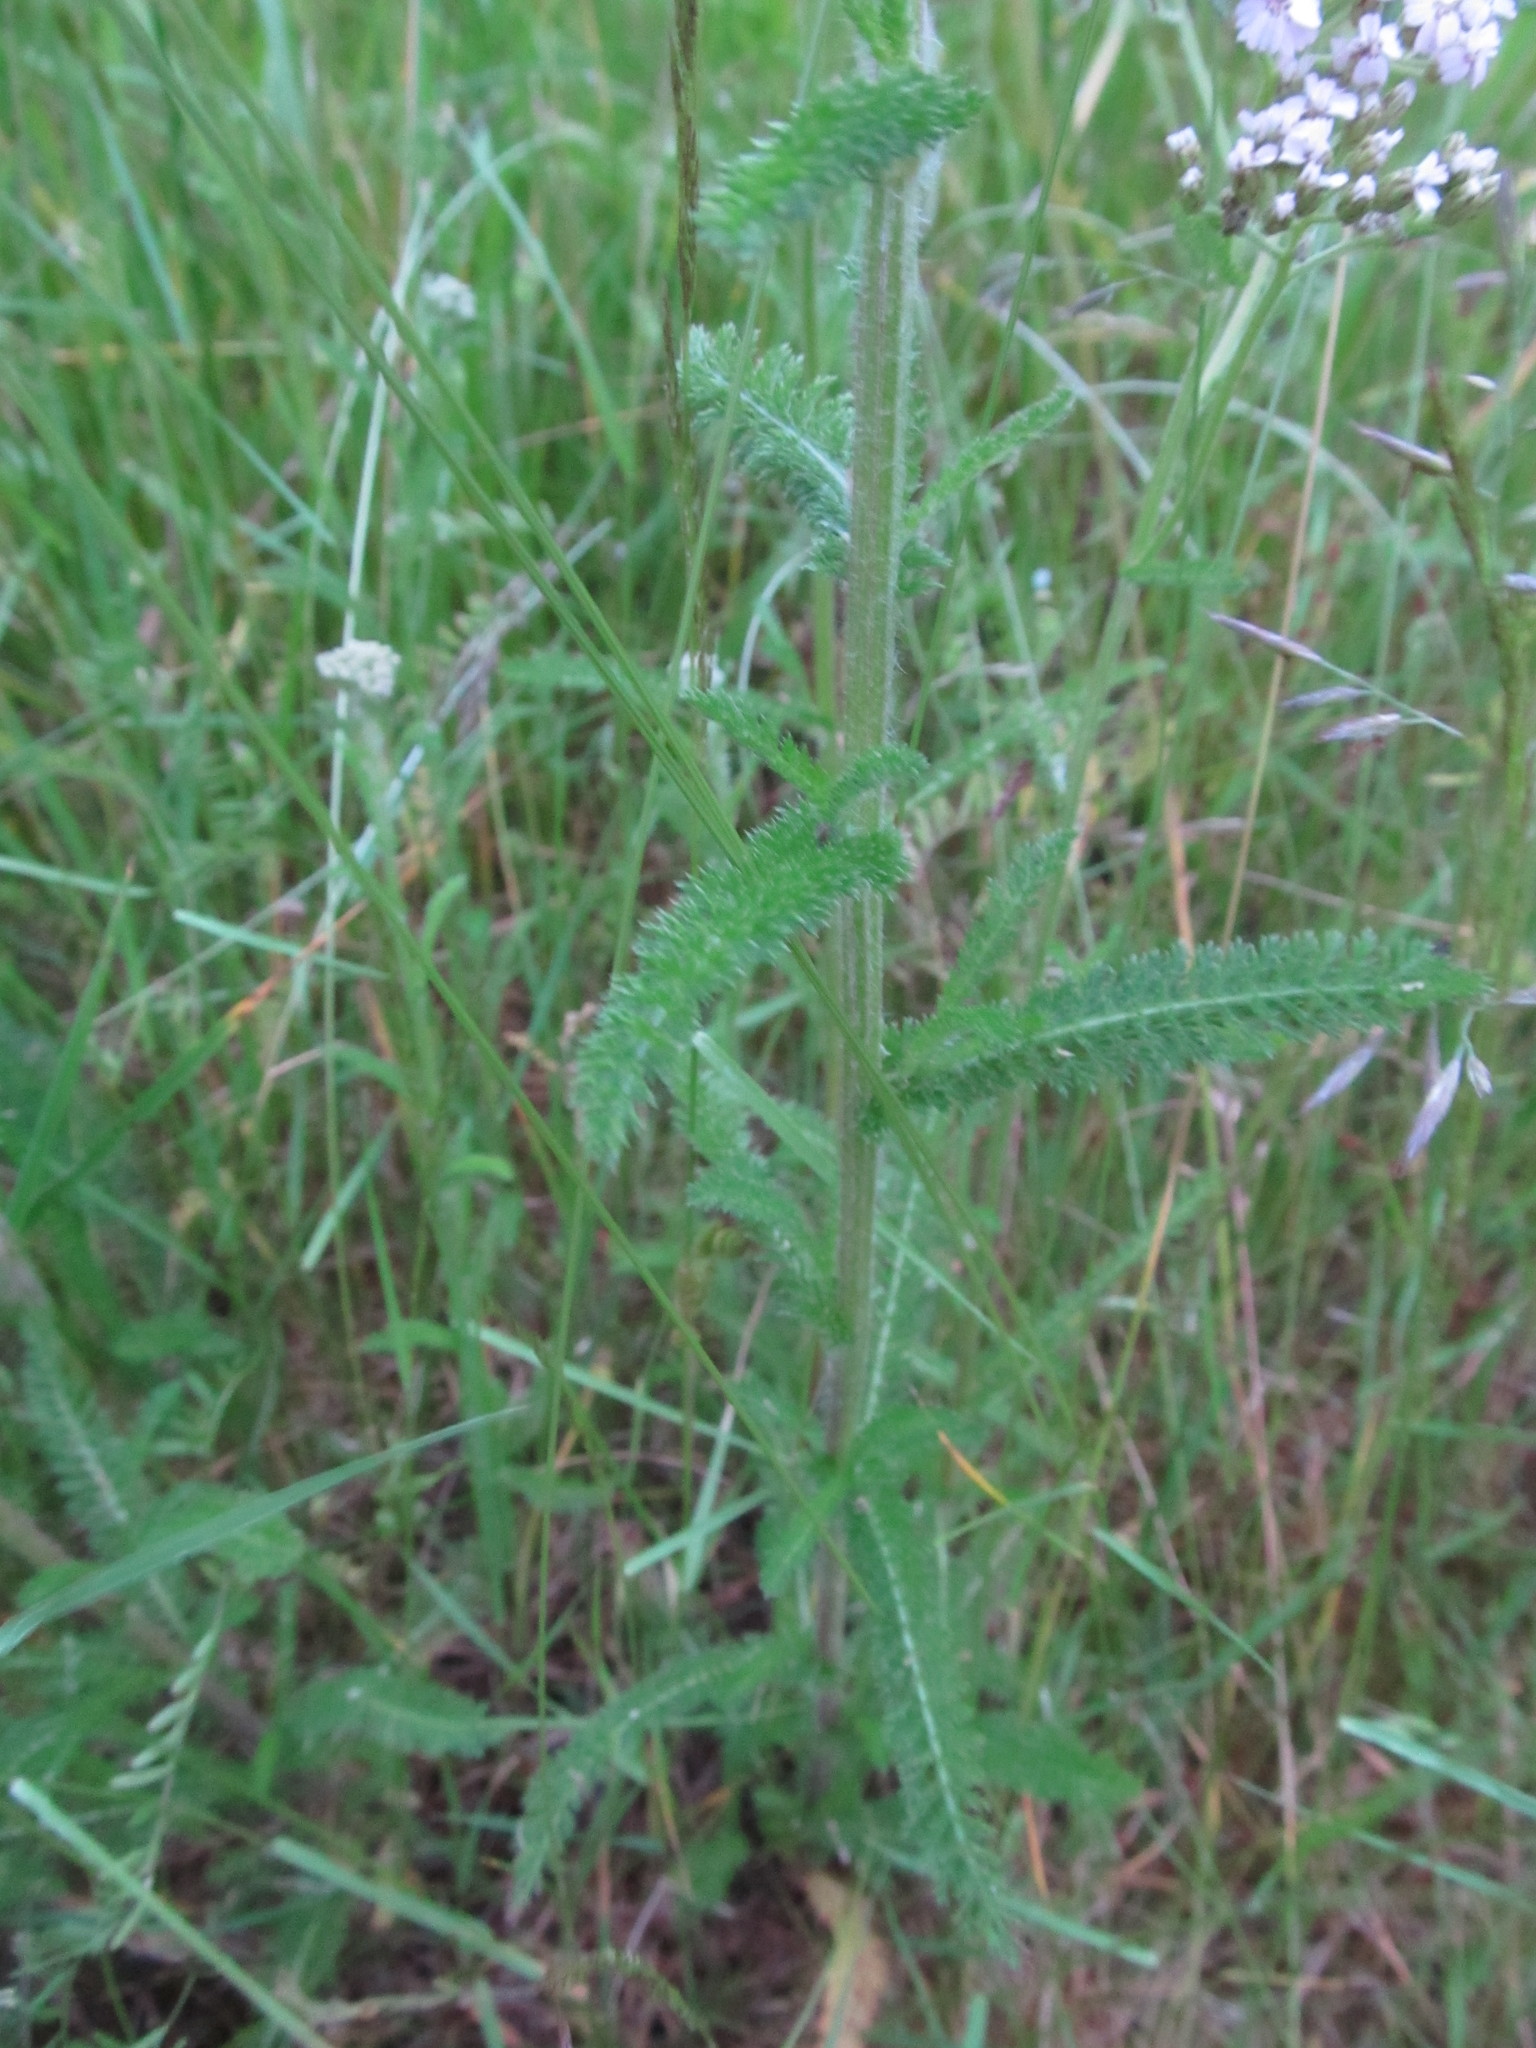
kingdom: Plantae
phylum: Tracheophyta
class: Magnoliopsida
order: Asterales
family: Asteraceae
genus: Achillea
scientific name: Achillea millefolium
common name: Yarrow
